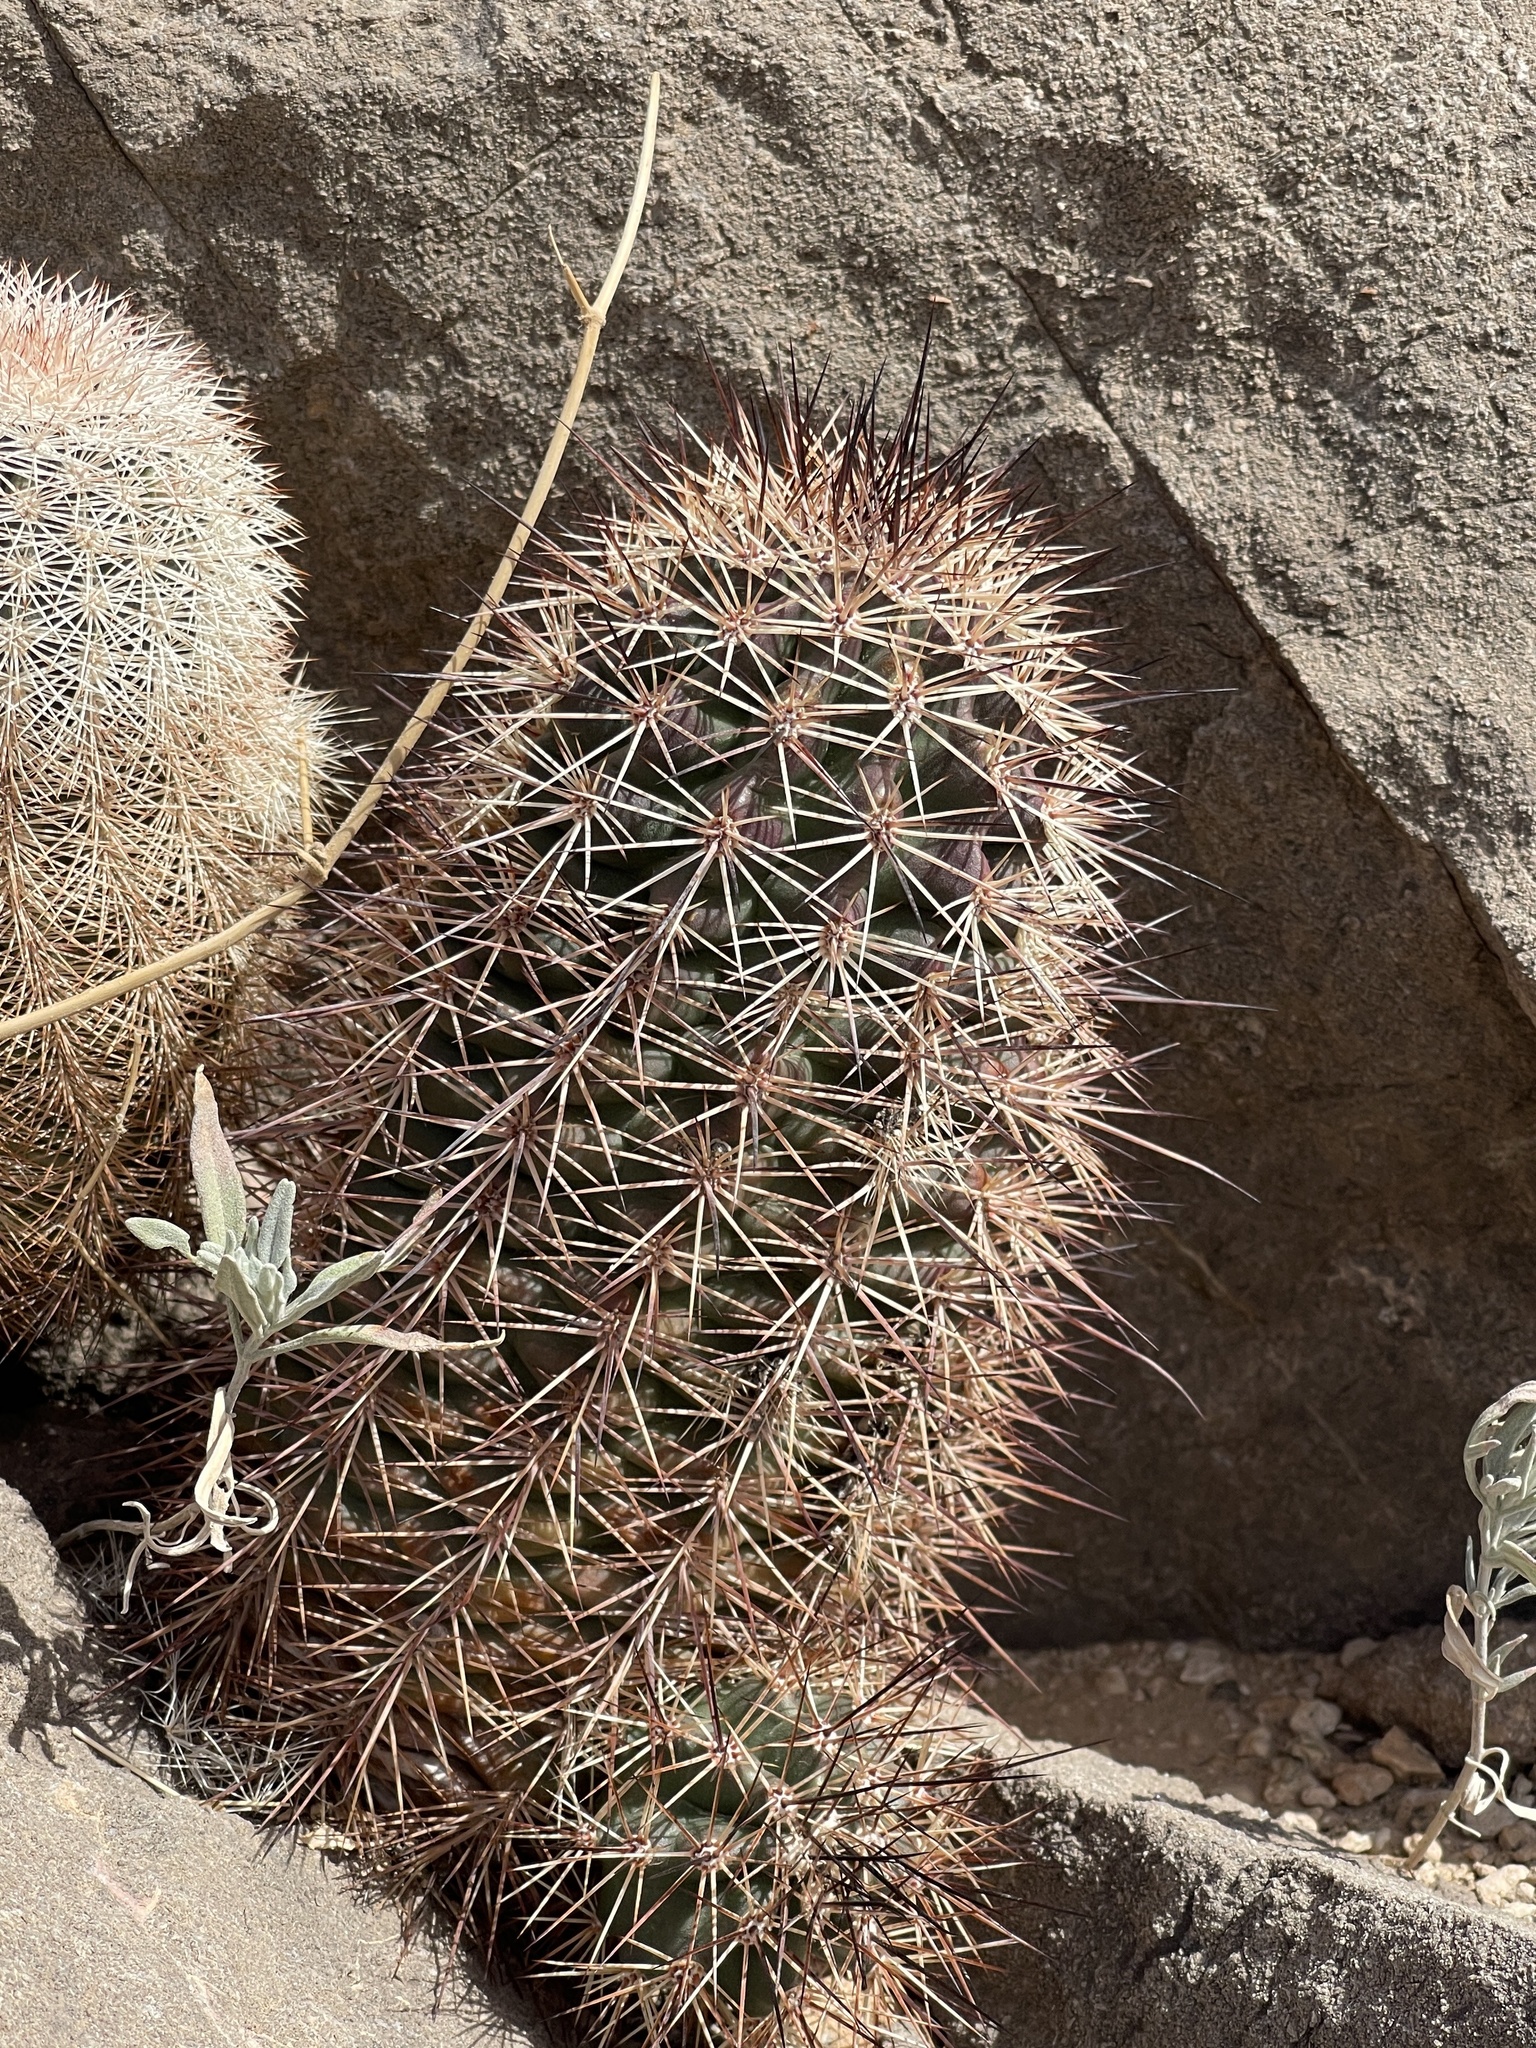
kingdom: Plantae
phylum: Tracheophyta
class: Magnoliopsida
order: Caryophyllales
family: Cactaceae
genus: Echinocereus
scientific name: Echinocereus coccineus
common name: Scarlet hedgehog cactus
